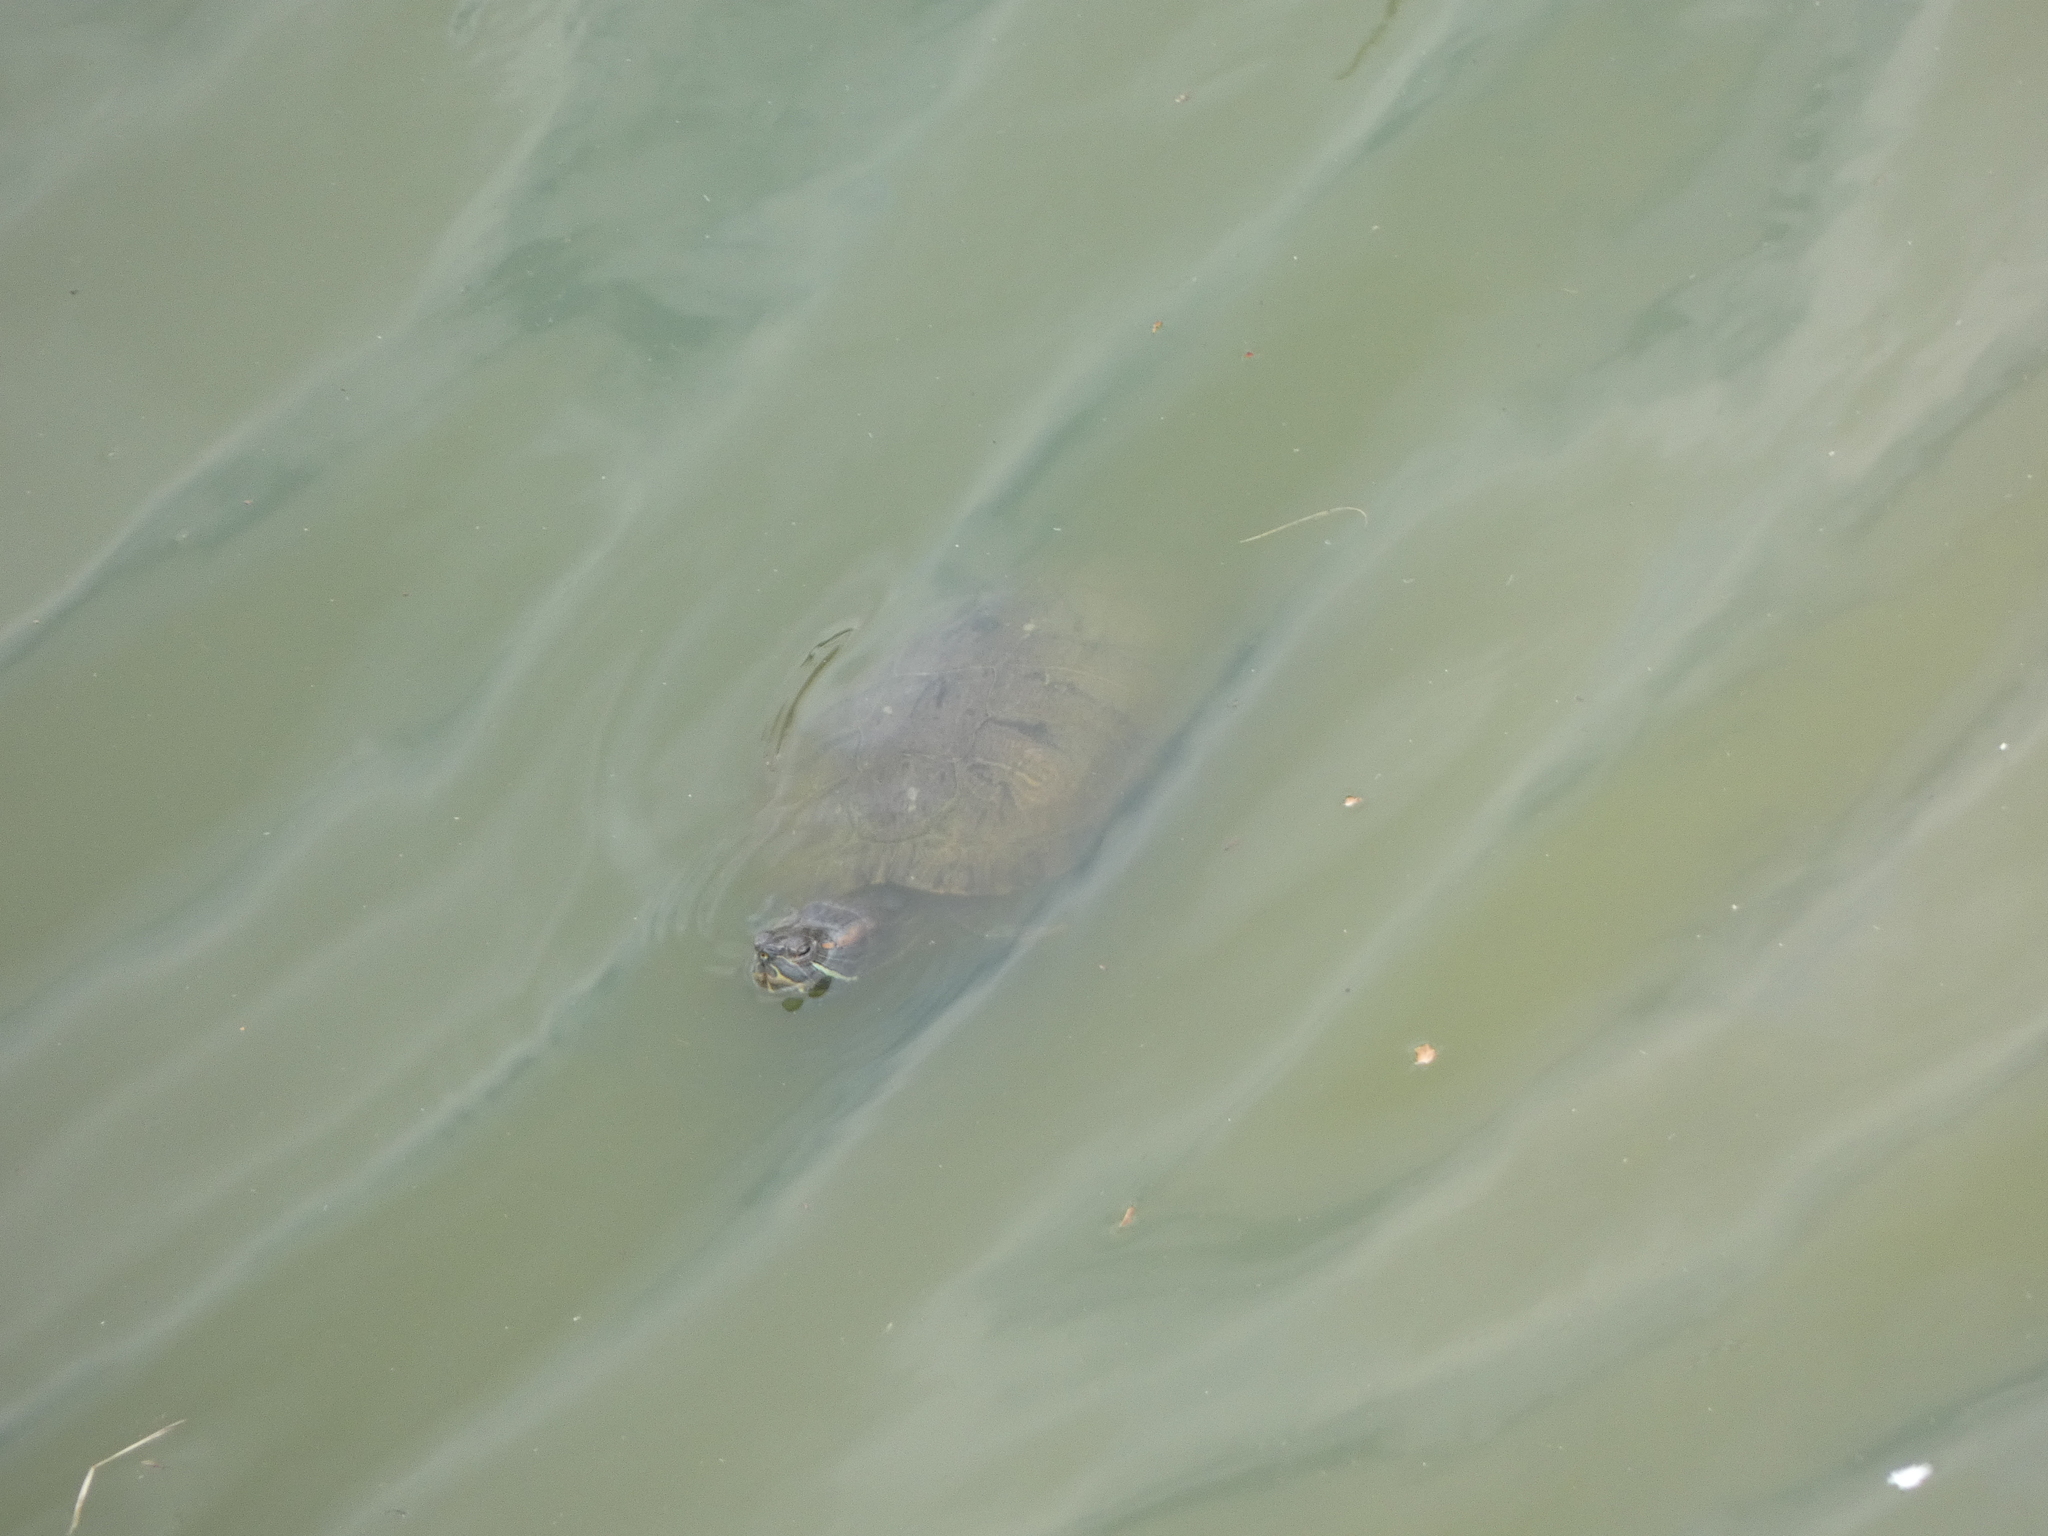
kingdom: Animalia
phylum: Chordata
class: Testudines
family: Emydidae
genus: Trachemys
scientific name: Trachemys scripta
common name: Slider
